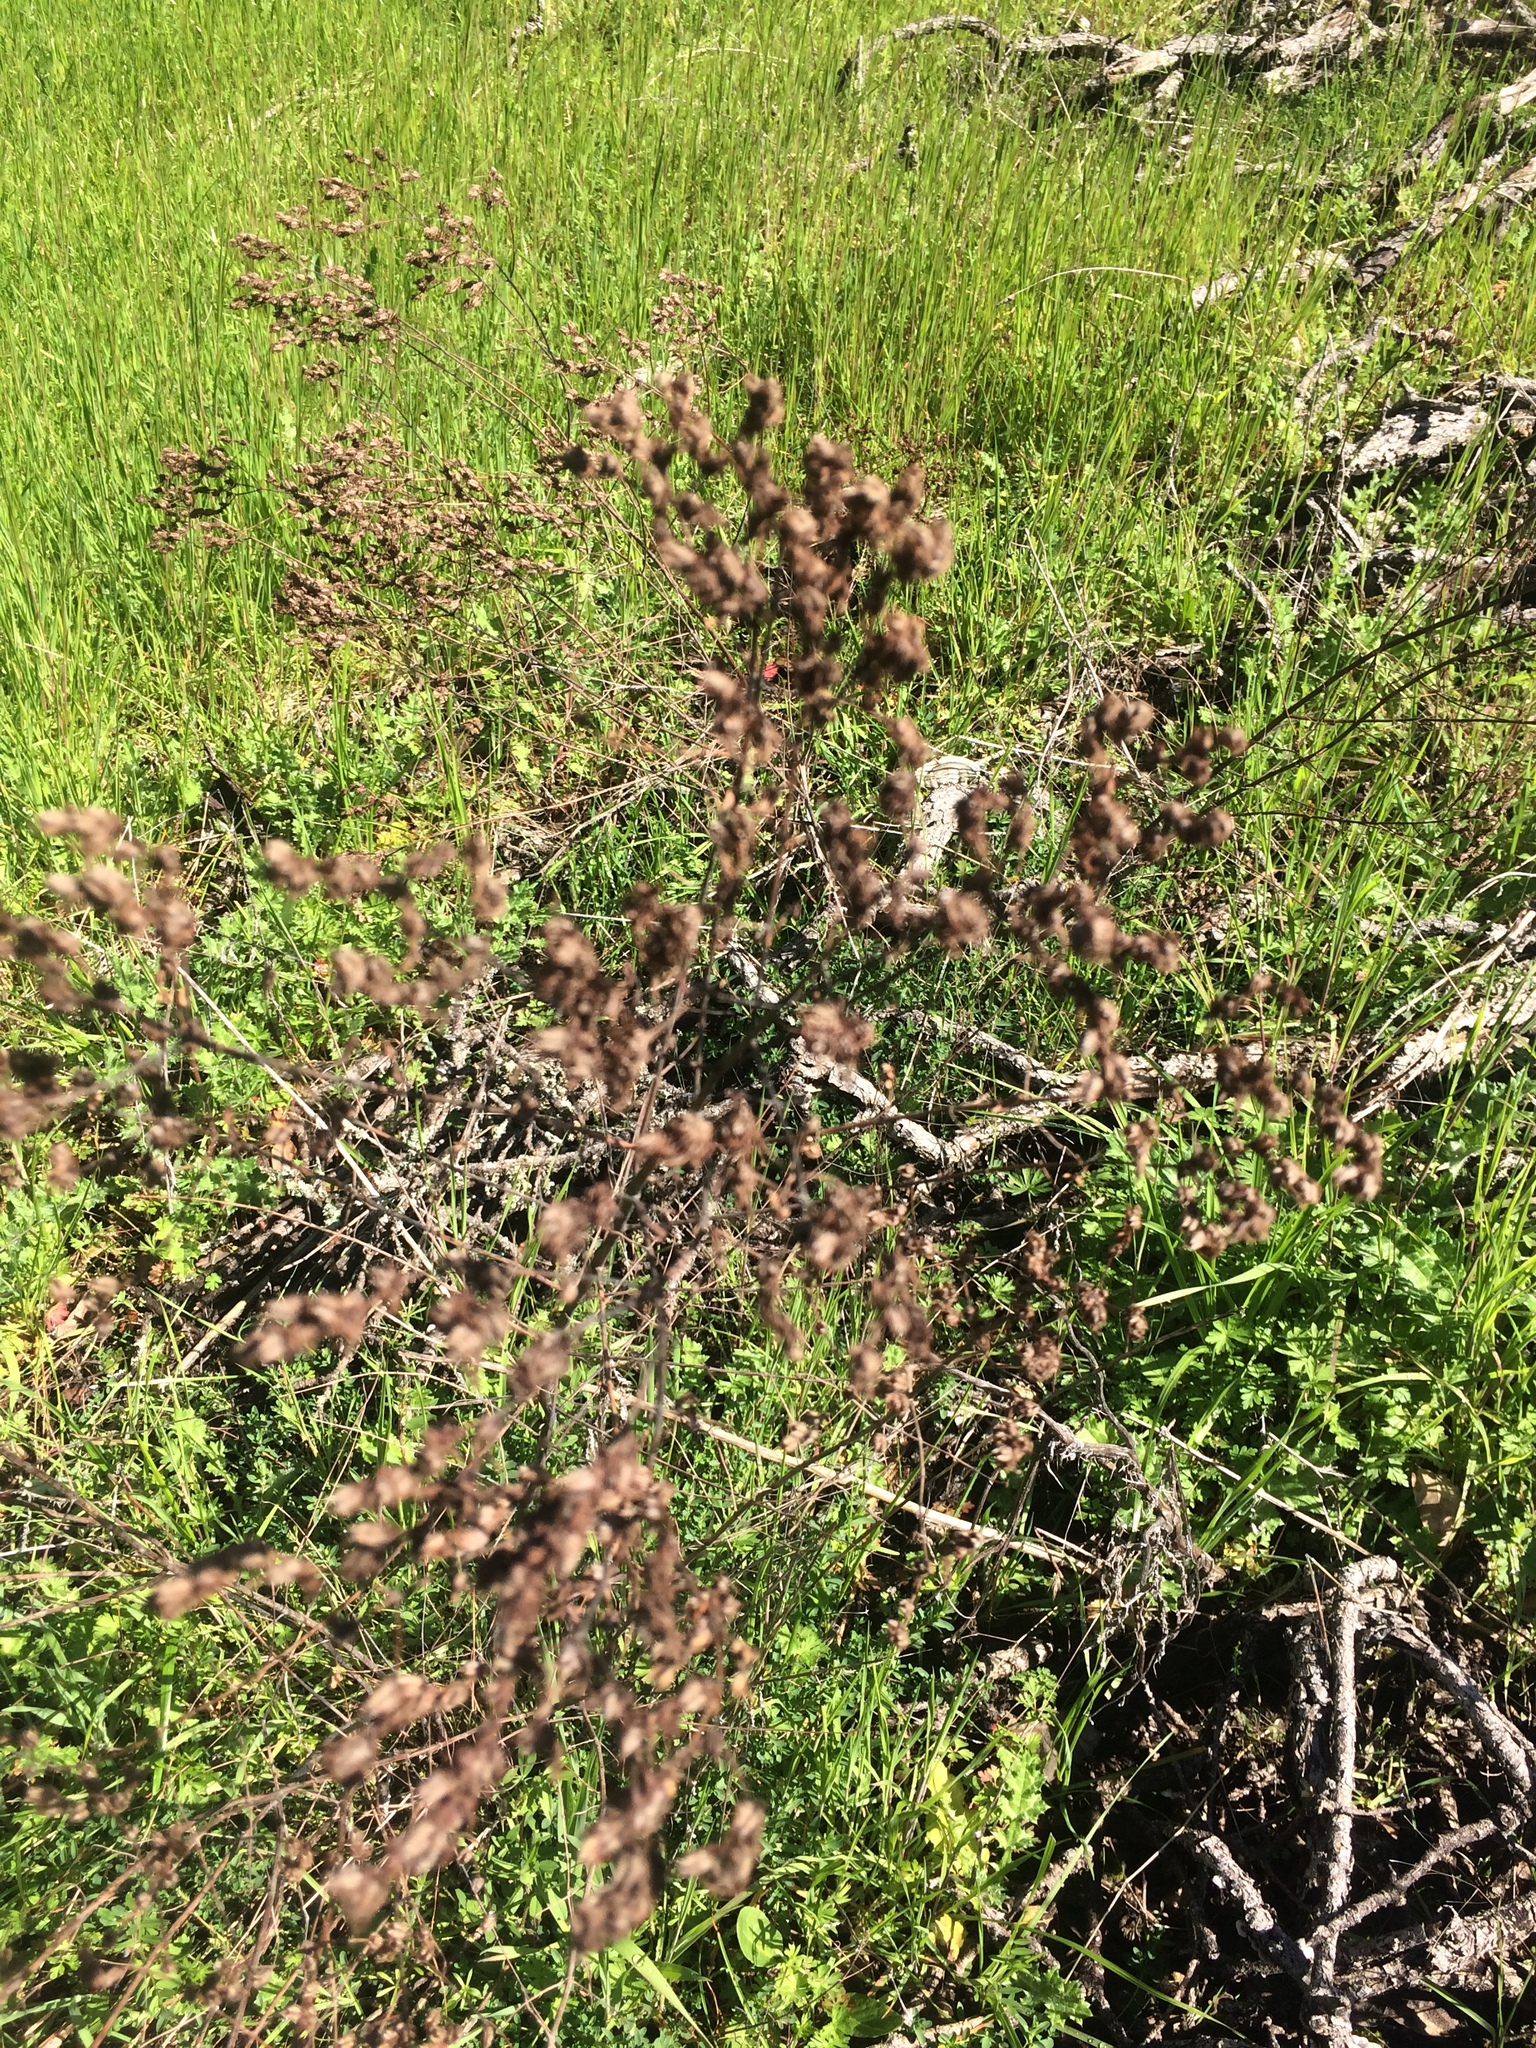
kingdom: Plantae
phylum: Tracheophyta
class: Magnoliopsida
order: Malpighiales
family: Hypericaceae
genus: Hypericum
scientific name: Hypericum perforatum
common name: Common st. johnswort
